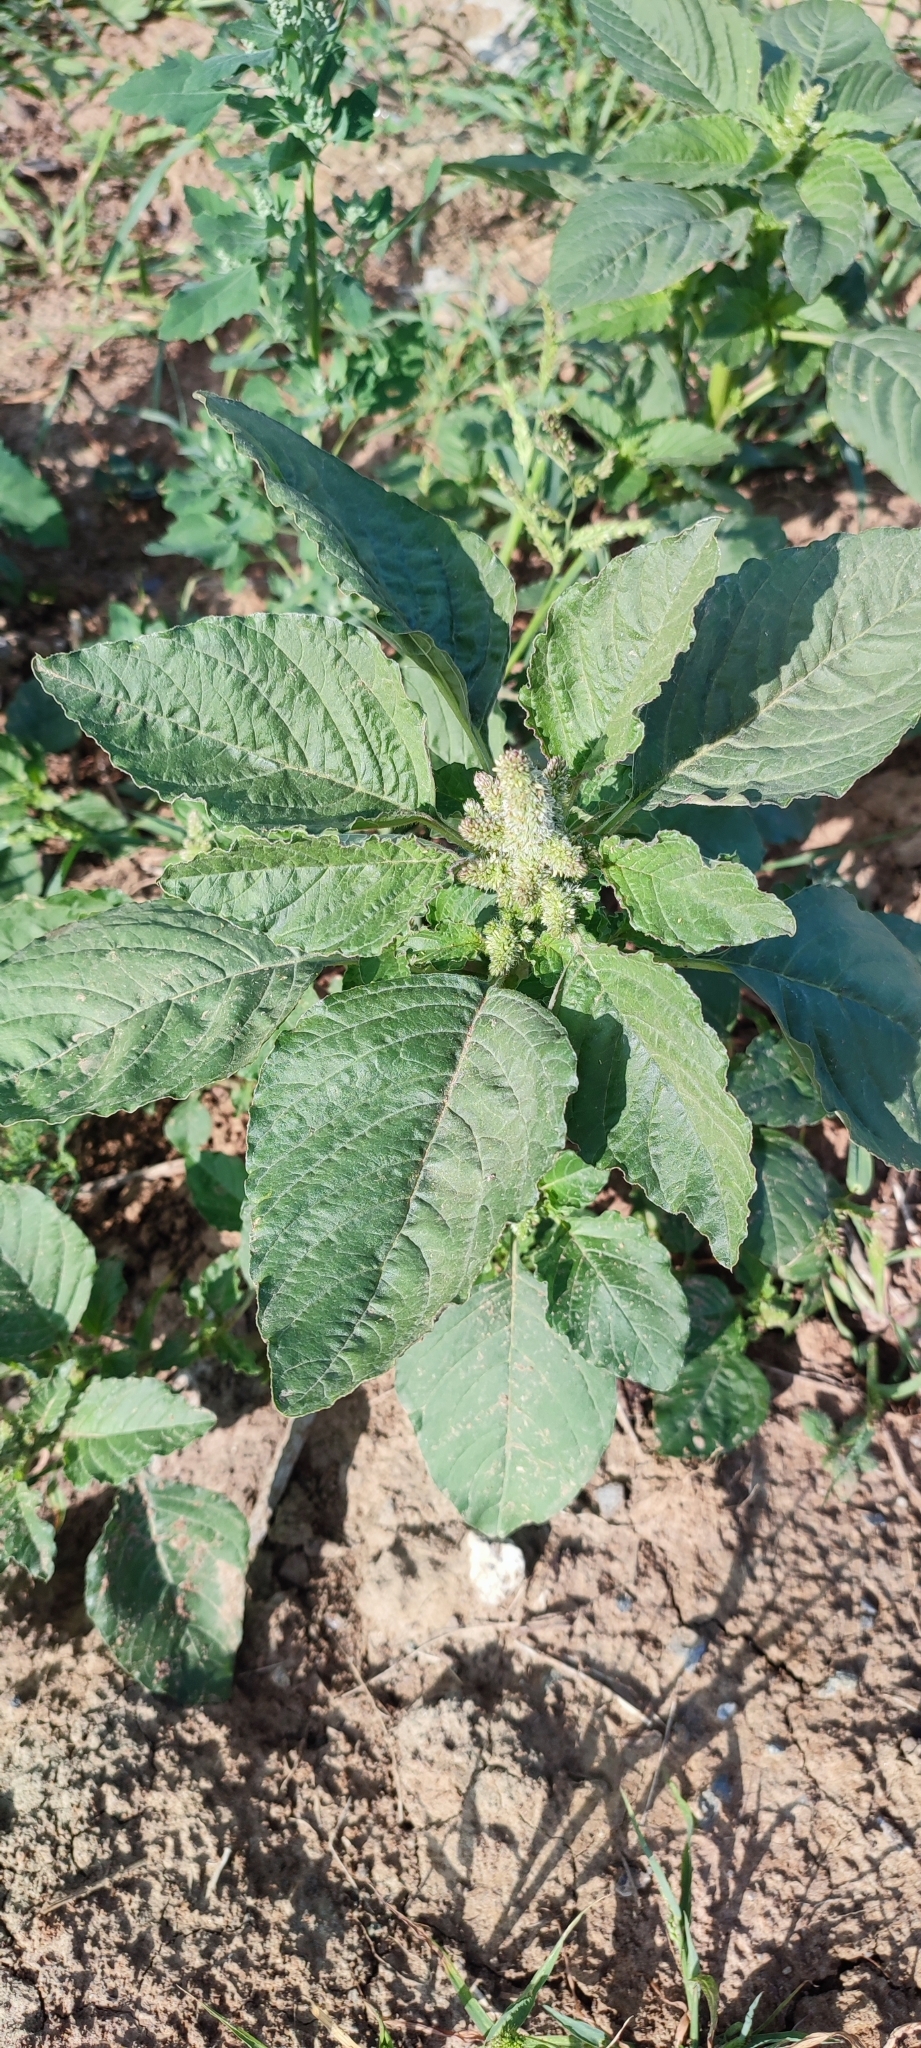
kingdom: Plantae
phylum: Tracheophyta
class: Magnoliopsida
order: Caryophyllales
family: Amaranthaceae
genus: Amaranthus
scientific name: Amaranthus retroflexus
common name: Redroot amaranth
